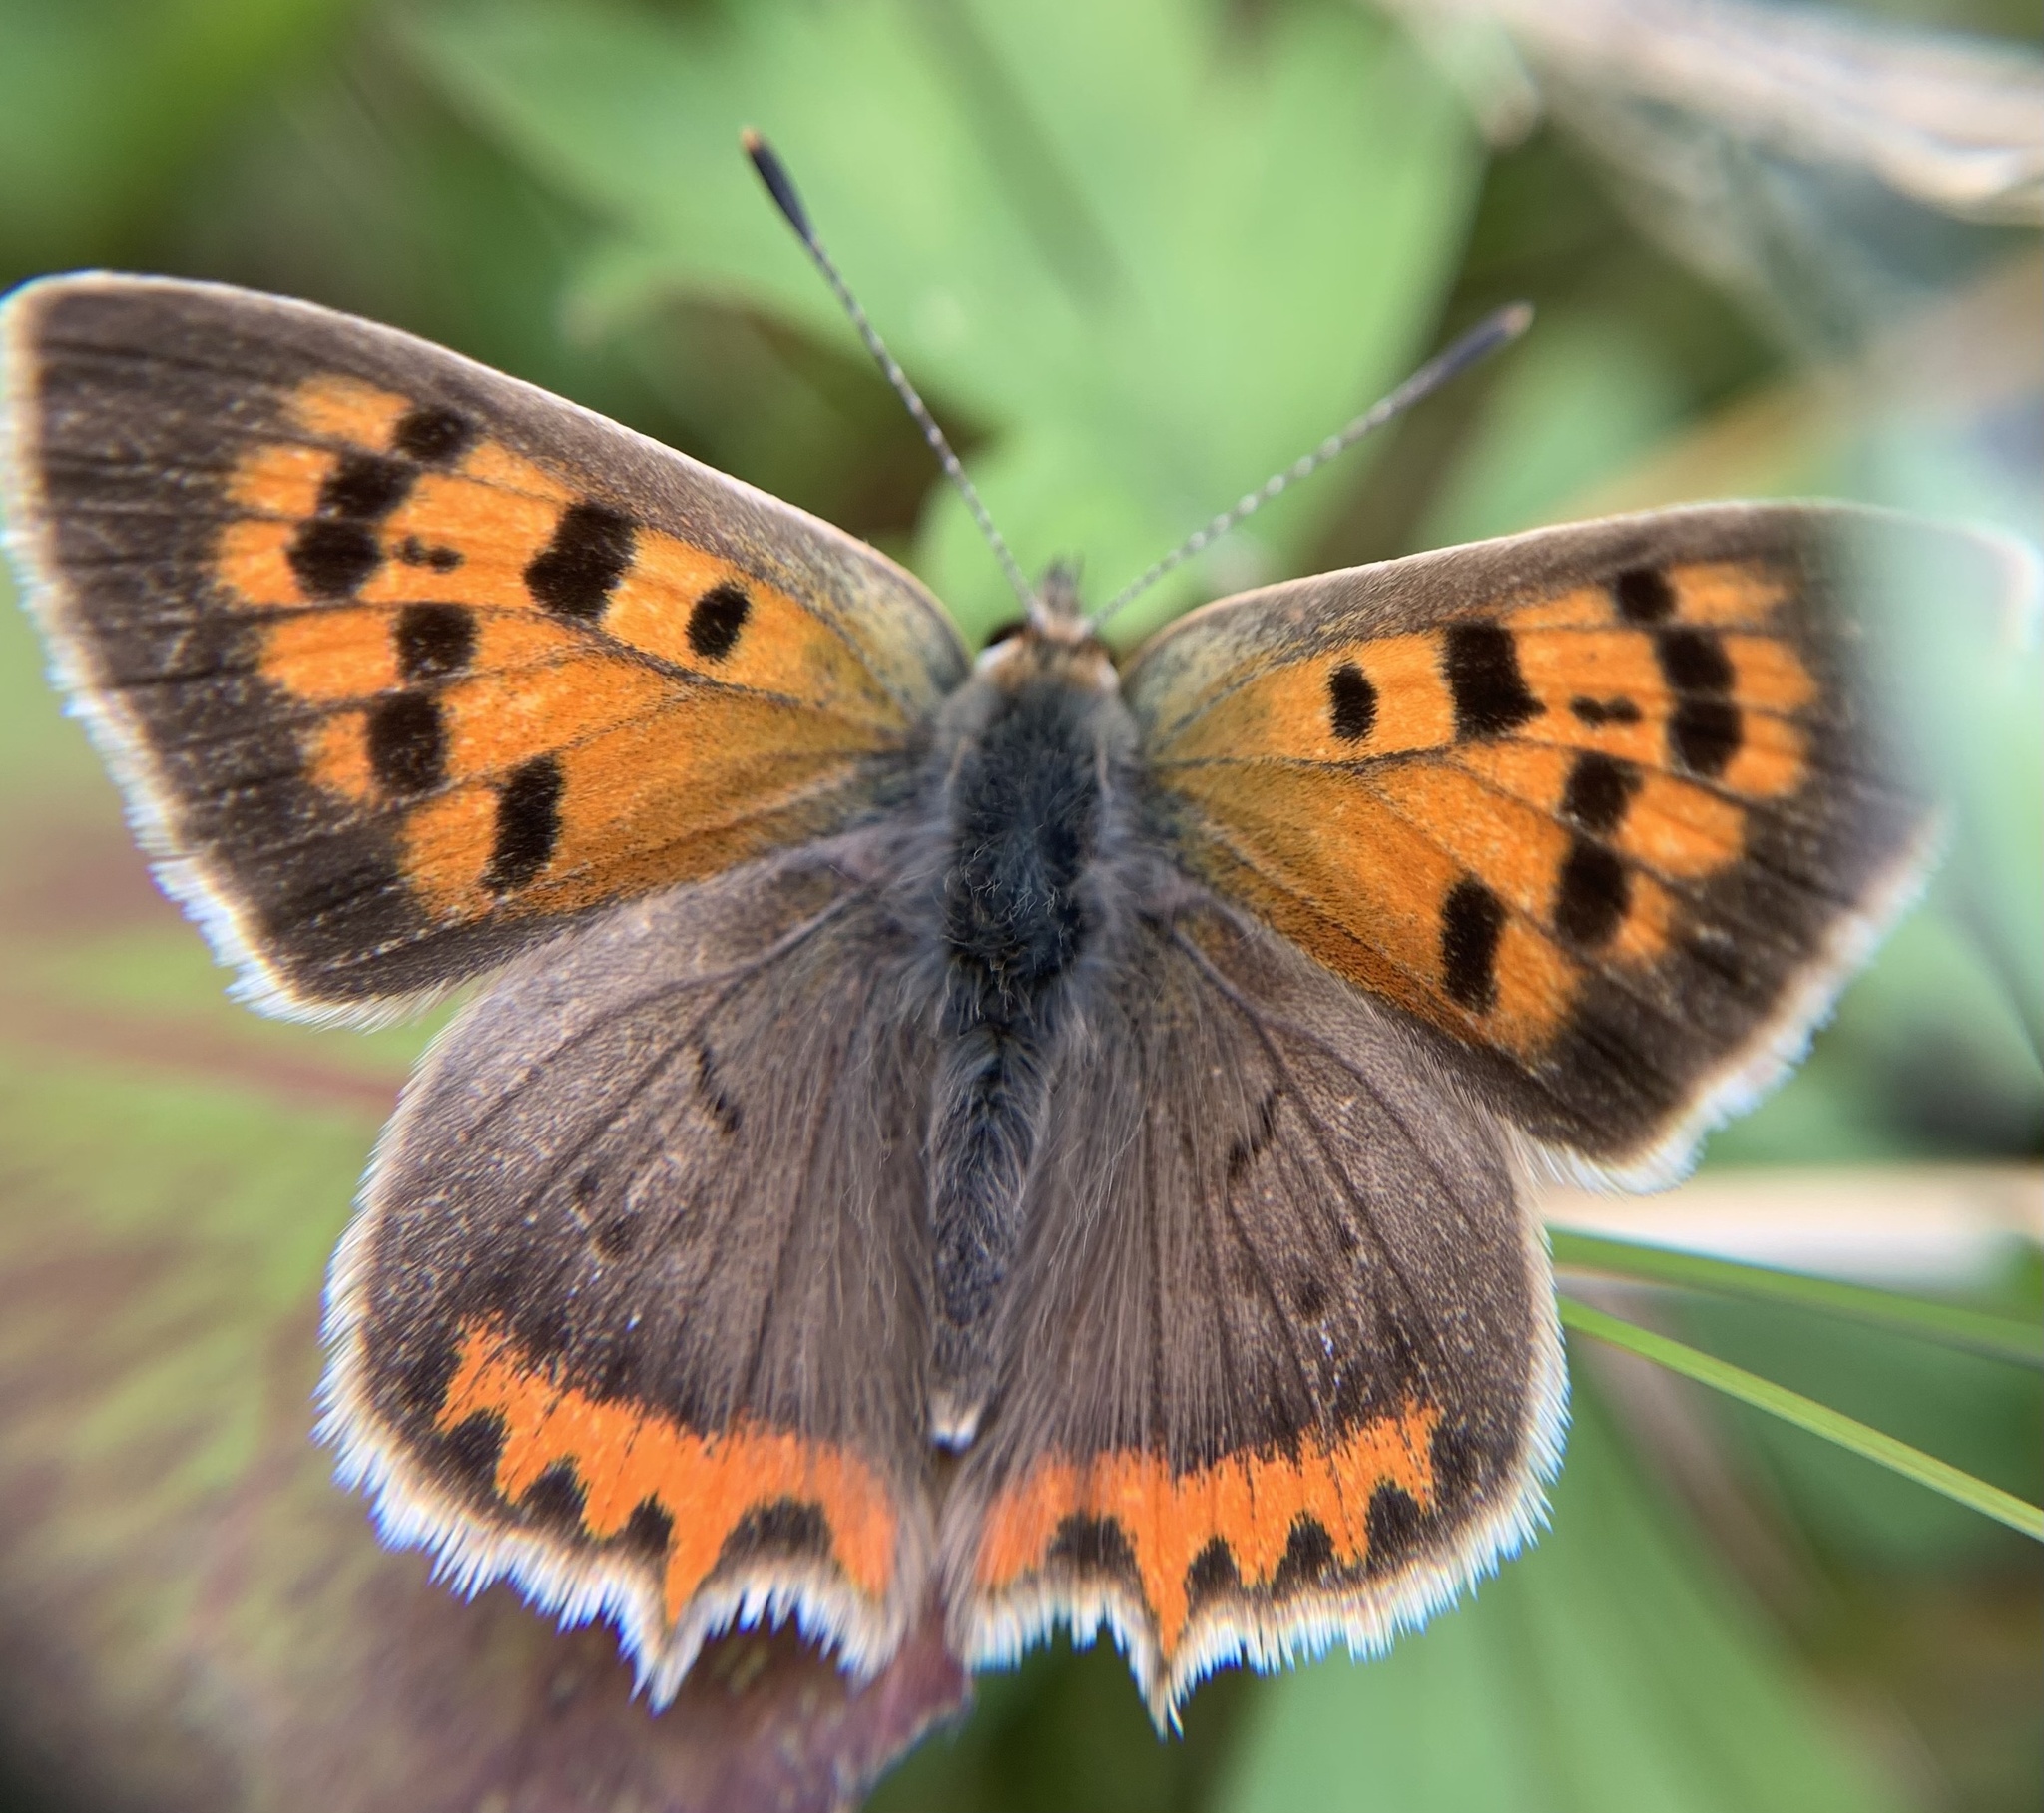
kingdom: Animalia
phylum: Arthropoda
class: Insecta
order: Lepidoptera
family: Lycaenidae
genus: Lycaena
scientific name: Lycaena phlaeas
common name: Small copper
